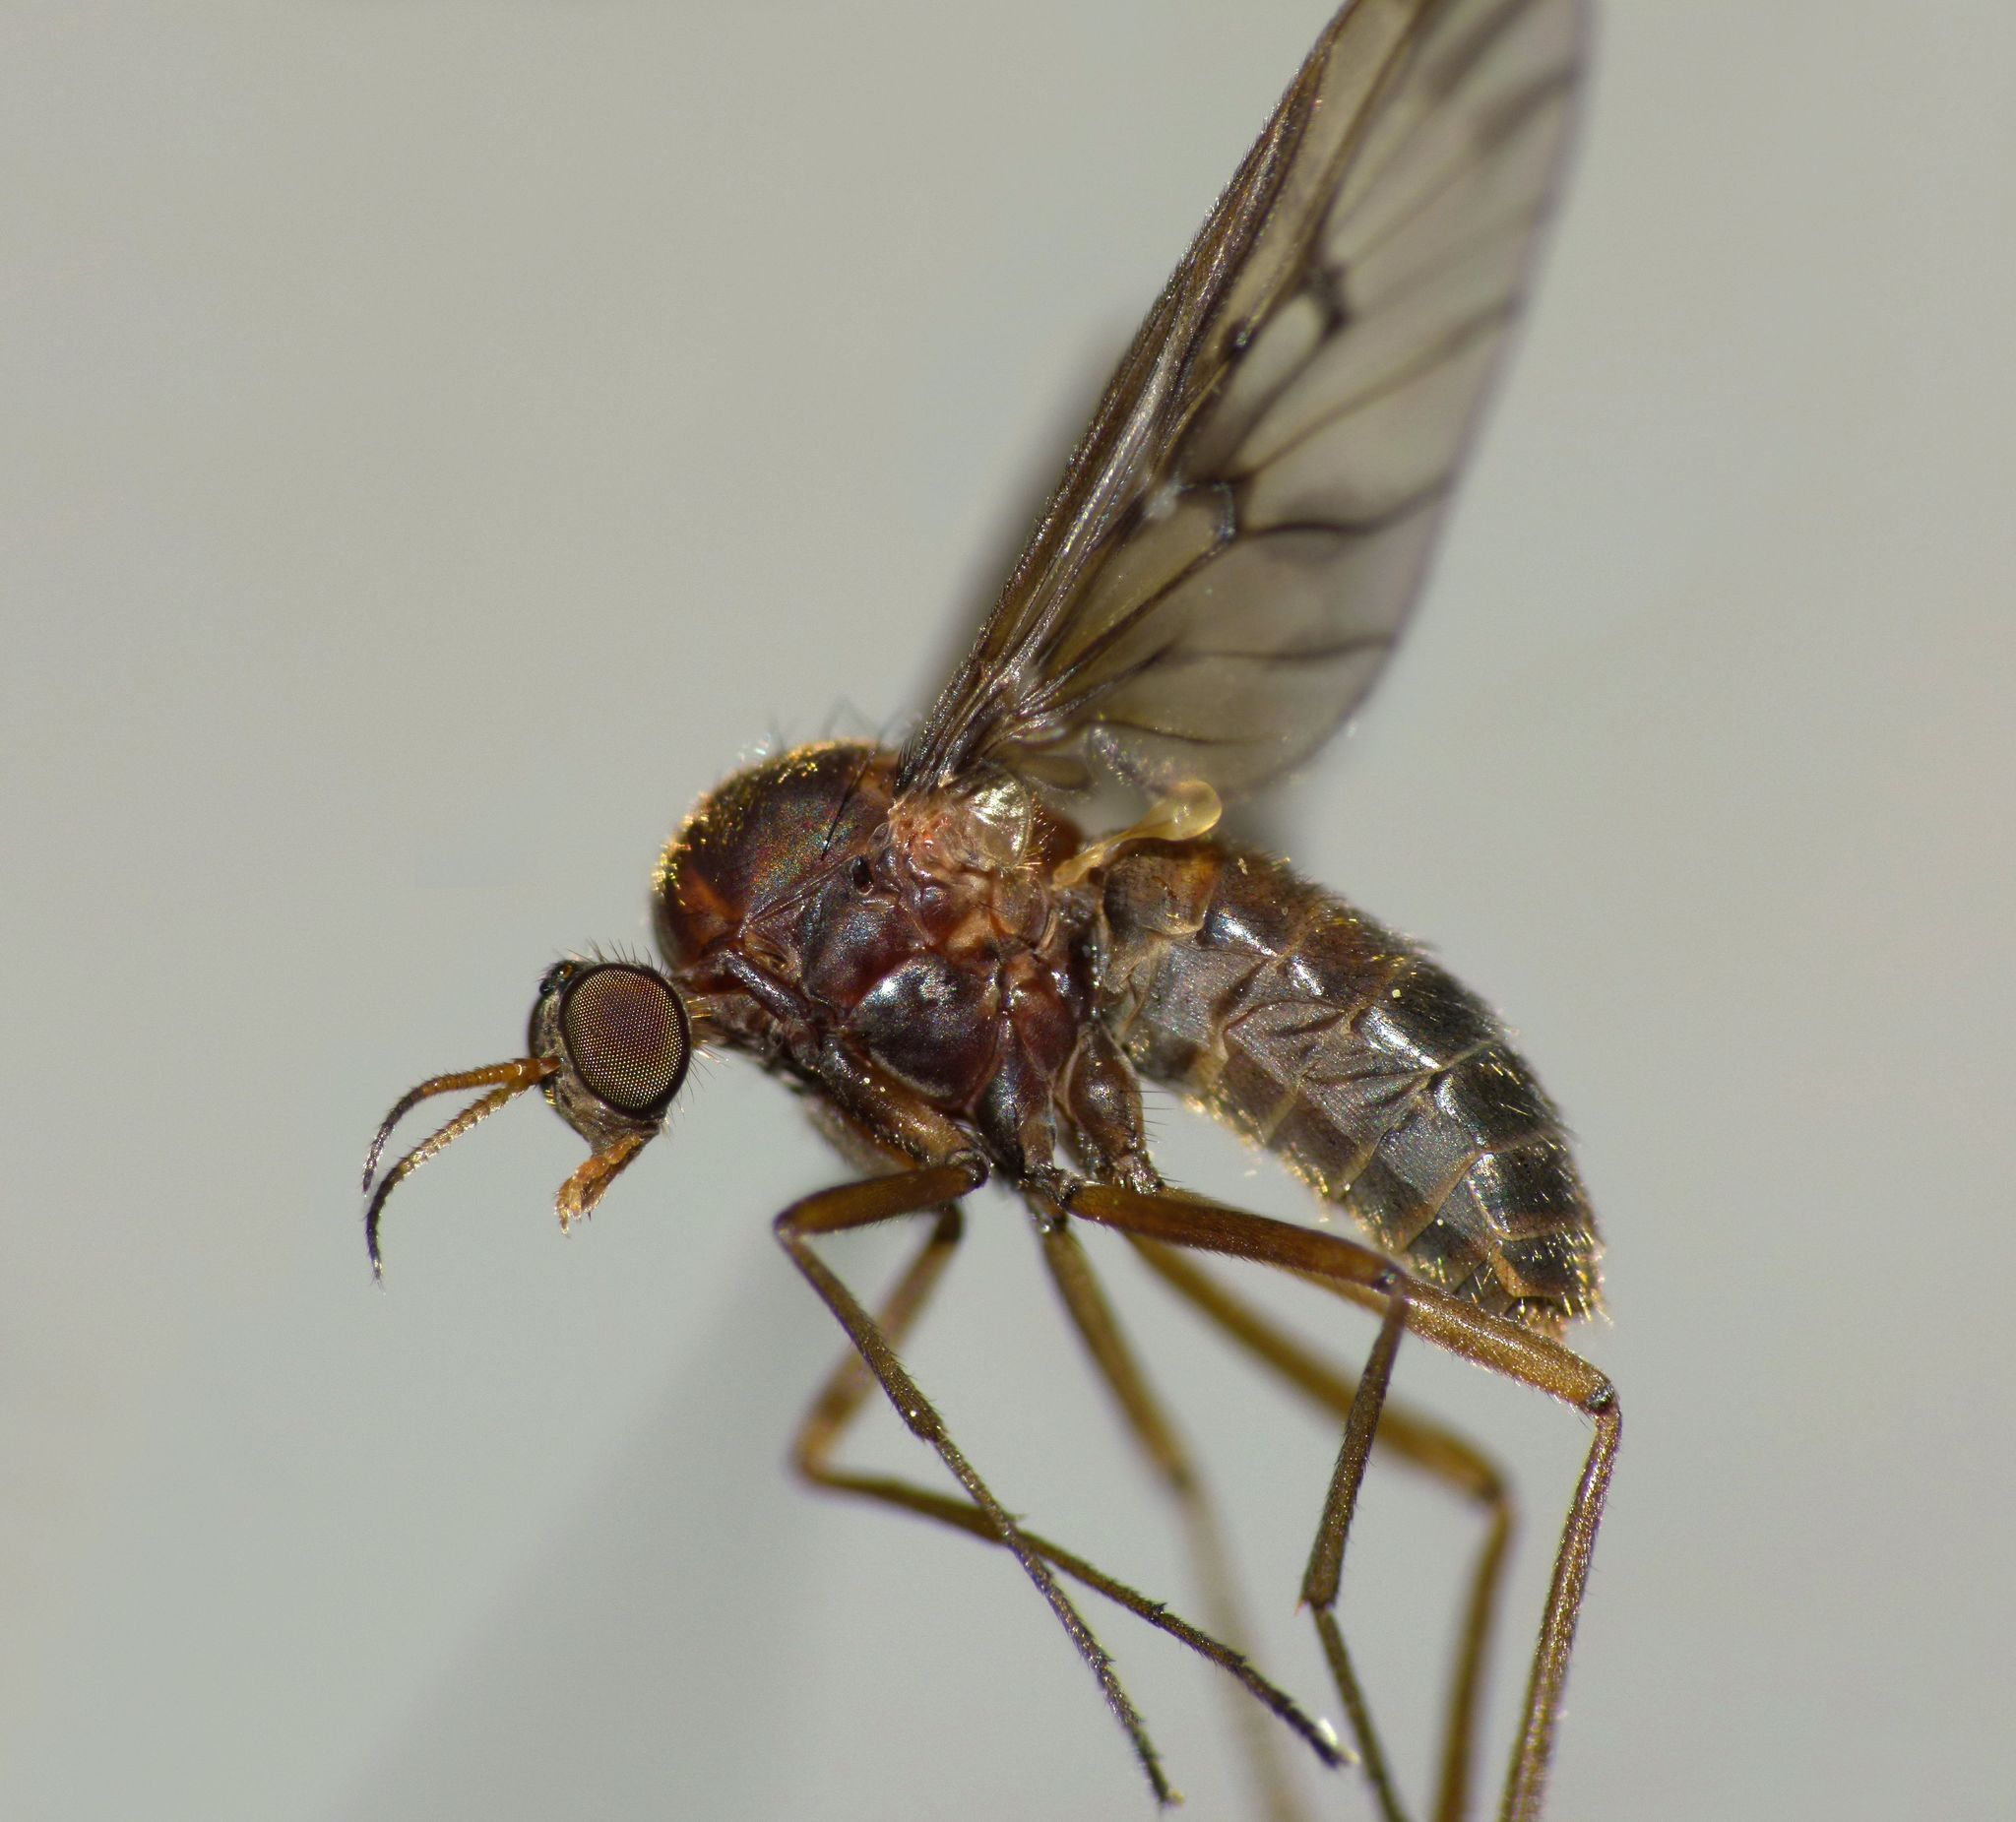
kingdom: Animalia
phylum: Arthropoda
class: Insecta
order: Diptera
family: Anisopodidae
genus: Sylvicola
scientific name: Sylvicola neozelandicus
